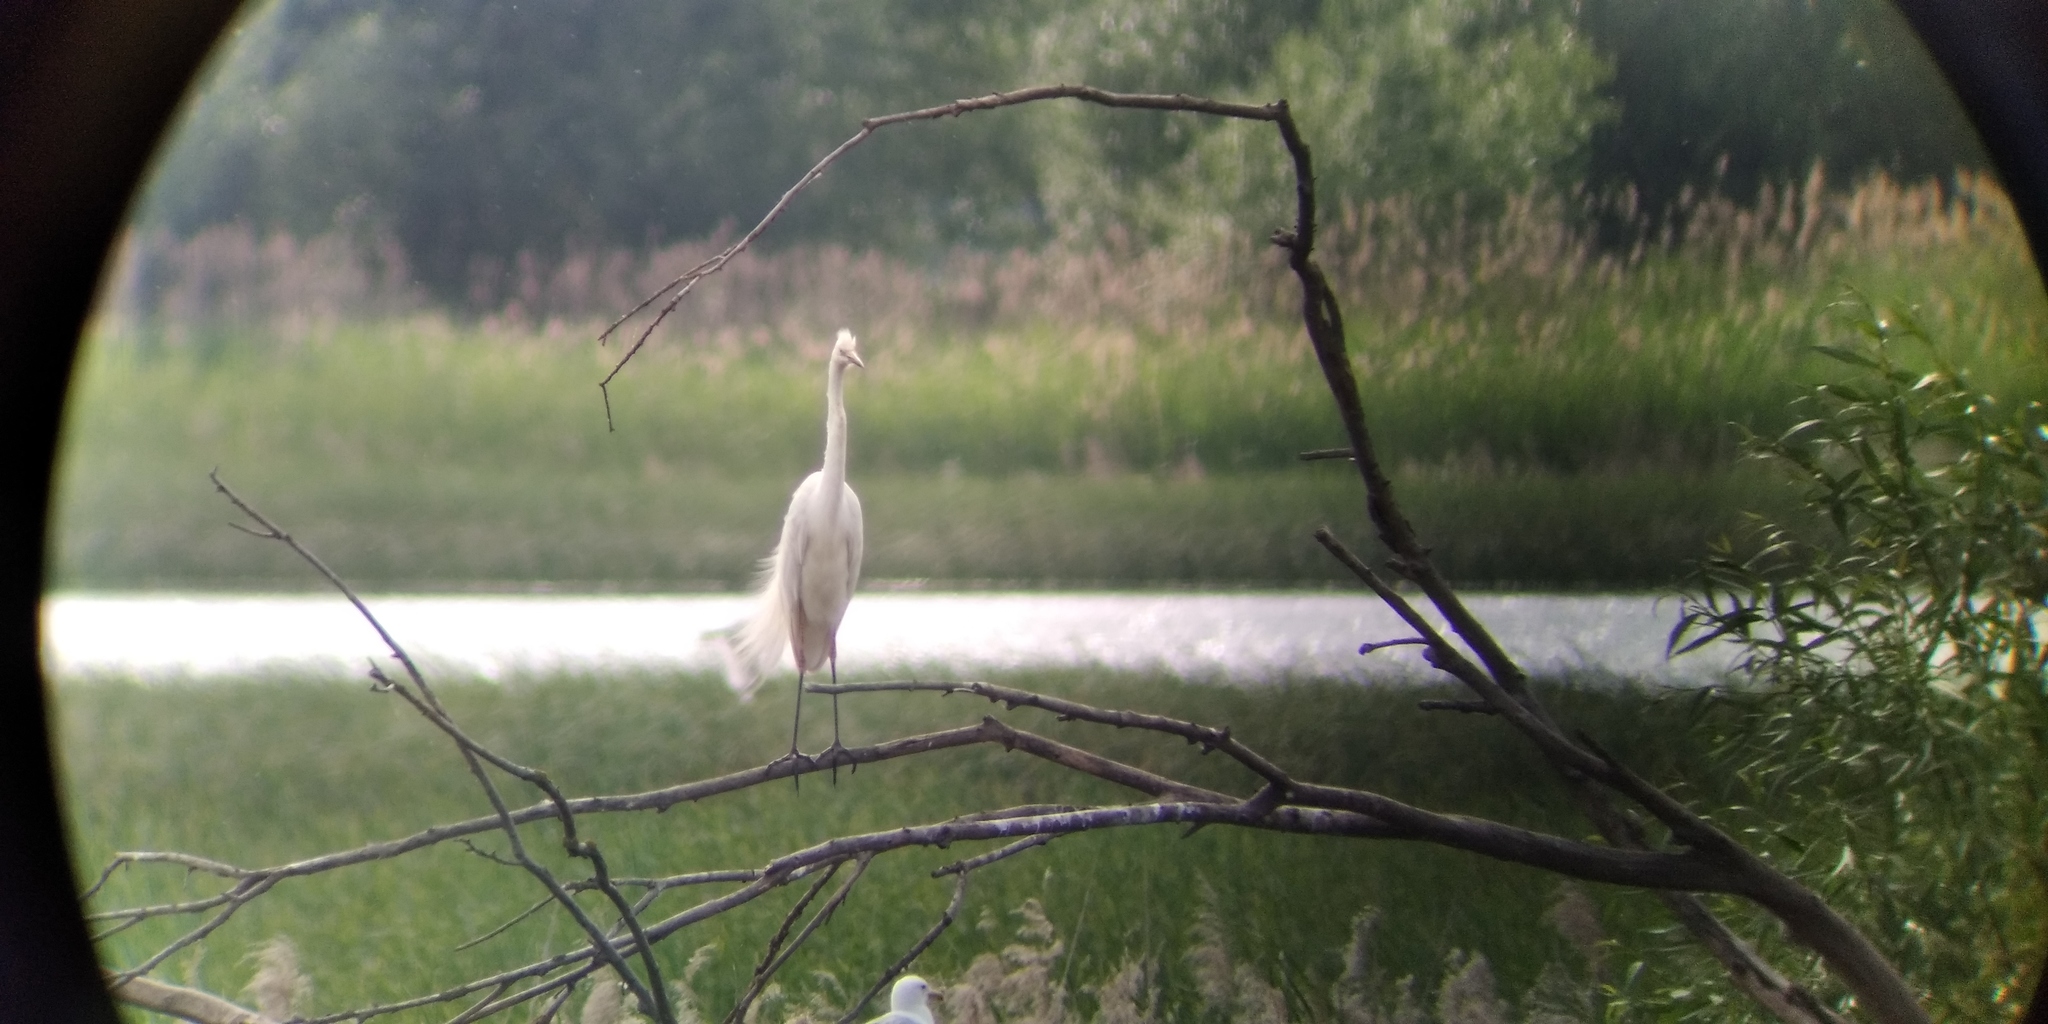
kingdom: Animalia
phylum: Chordata
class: Aves
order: Pelecaniformes
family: Ardeidae
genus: Ardea
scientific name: Ardea alba
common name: Great egret
